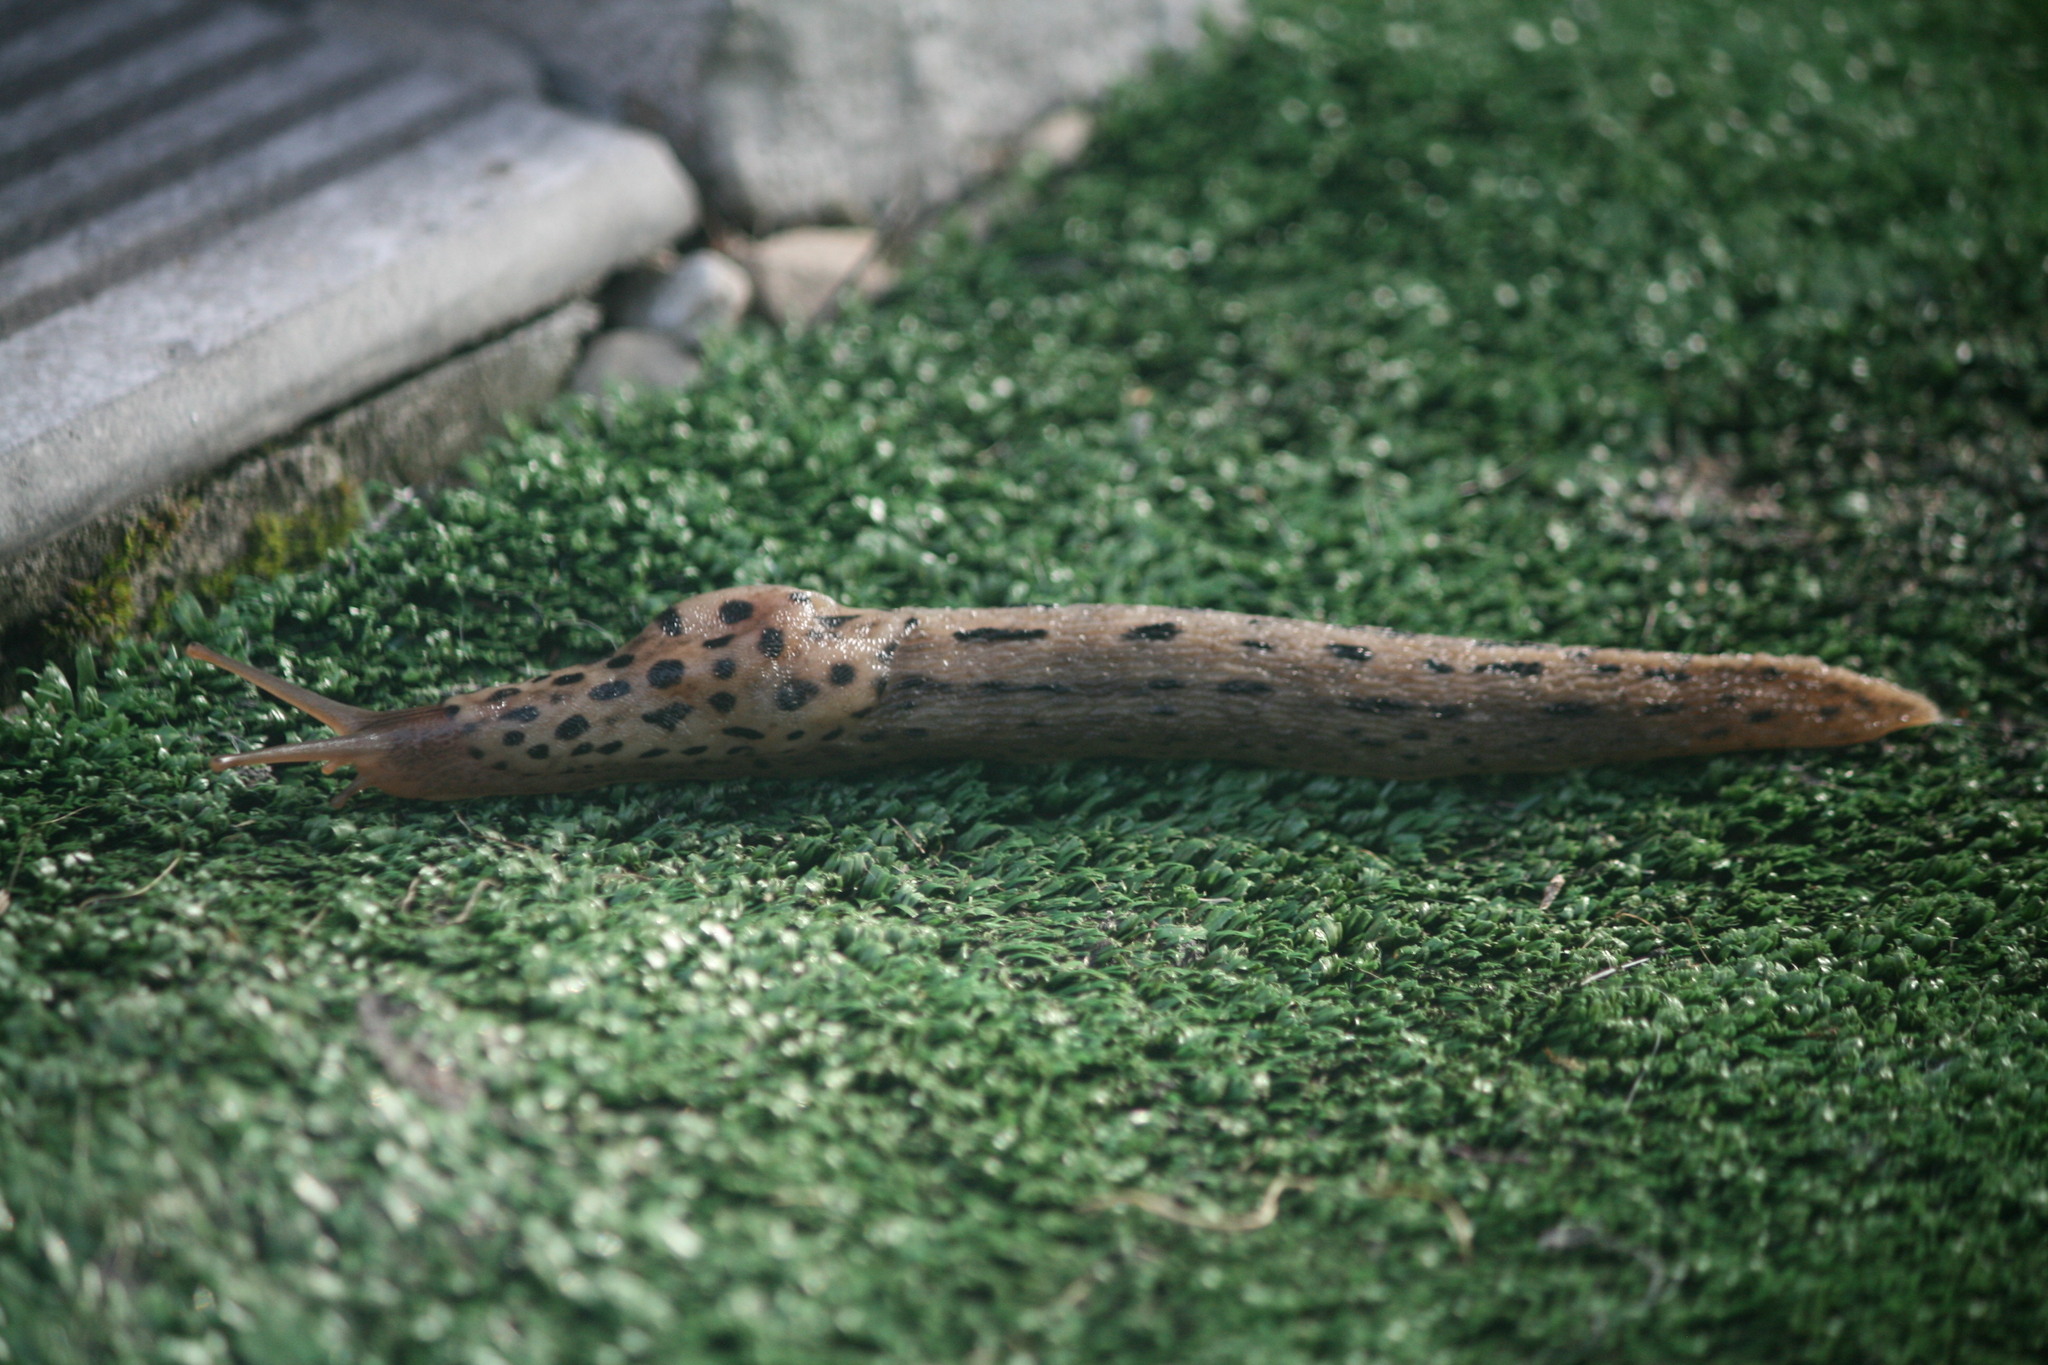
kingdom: Animalia
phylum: Mollusca
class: Gastropoda
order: Stylommatophora
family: Limacidae
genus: Limax
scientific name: Limax maximus
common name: Great grey slug
